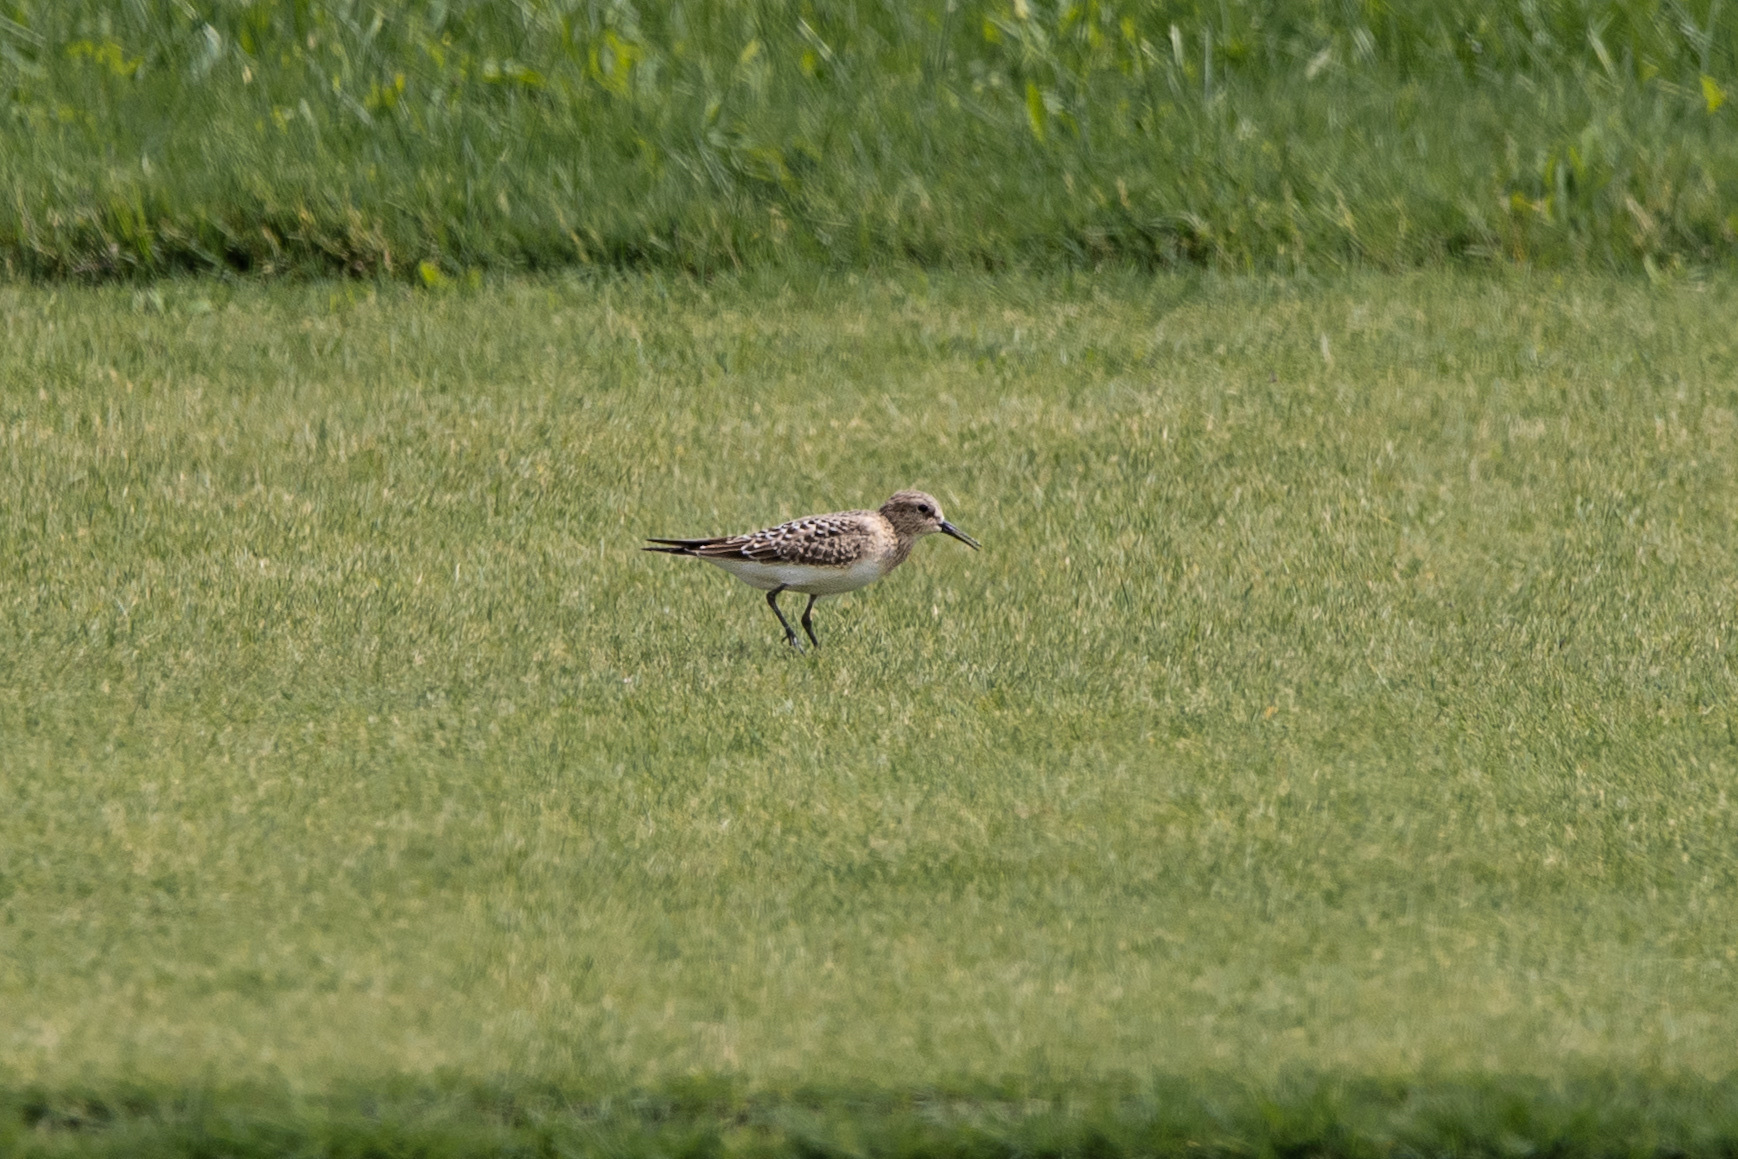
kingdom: Animalia
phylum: Chordata
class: Aves
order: Charadriiformes
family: Scolopacidae
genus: Calidris
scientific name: Calidris bairdii
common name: Baird's sandpiper
